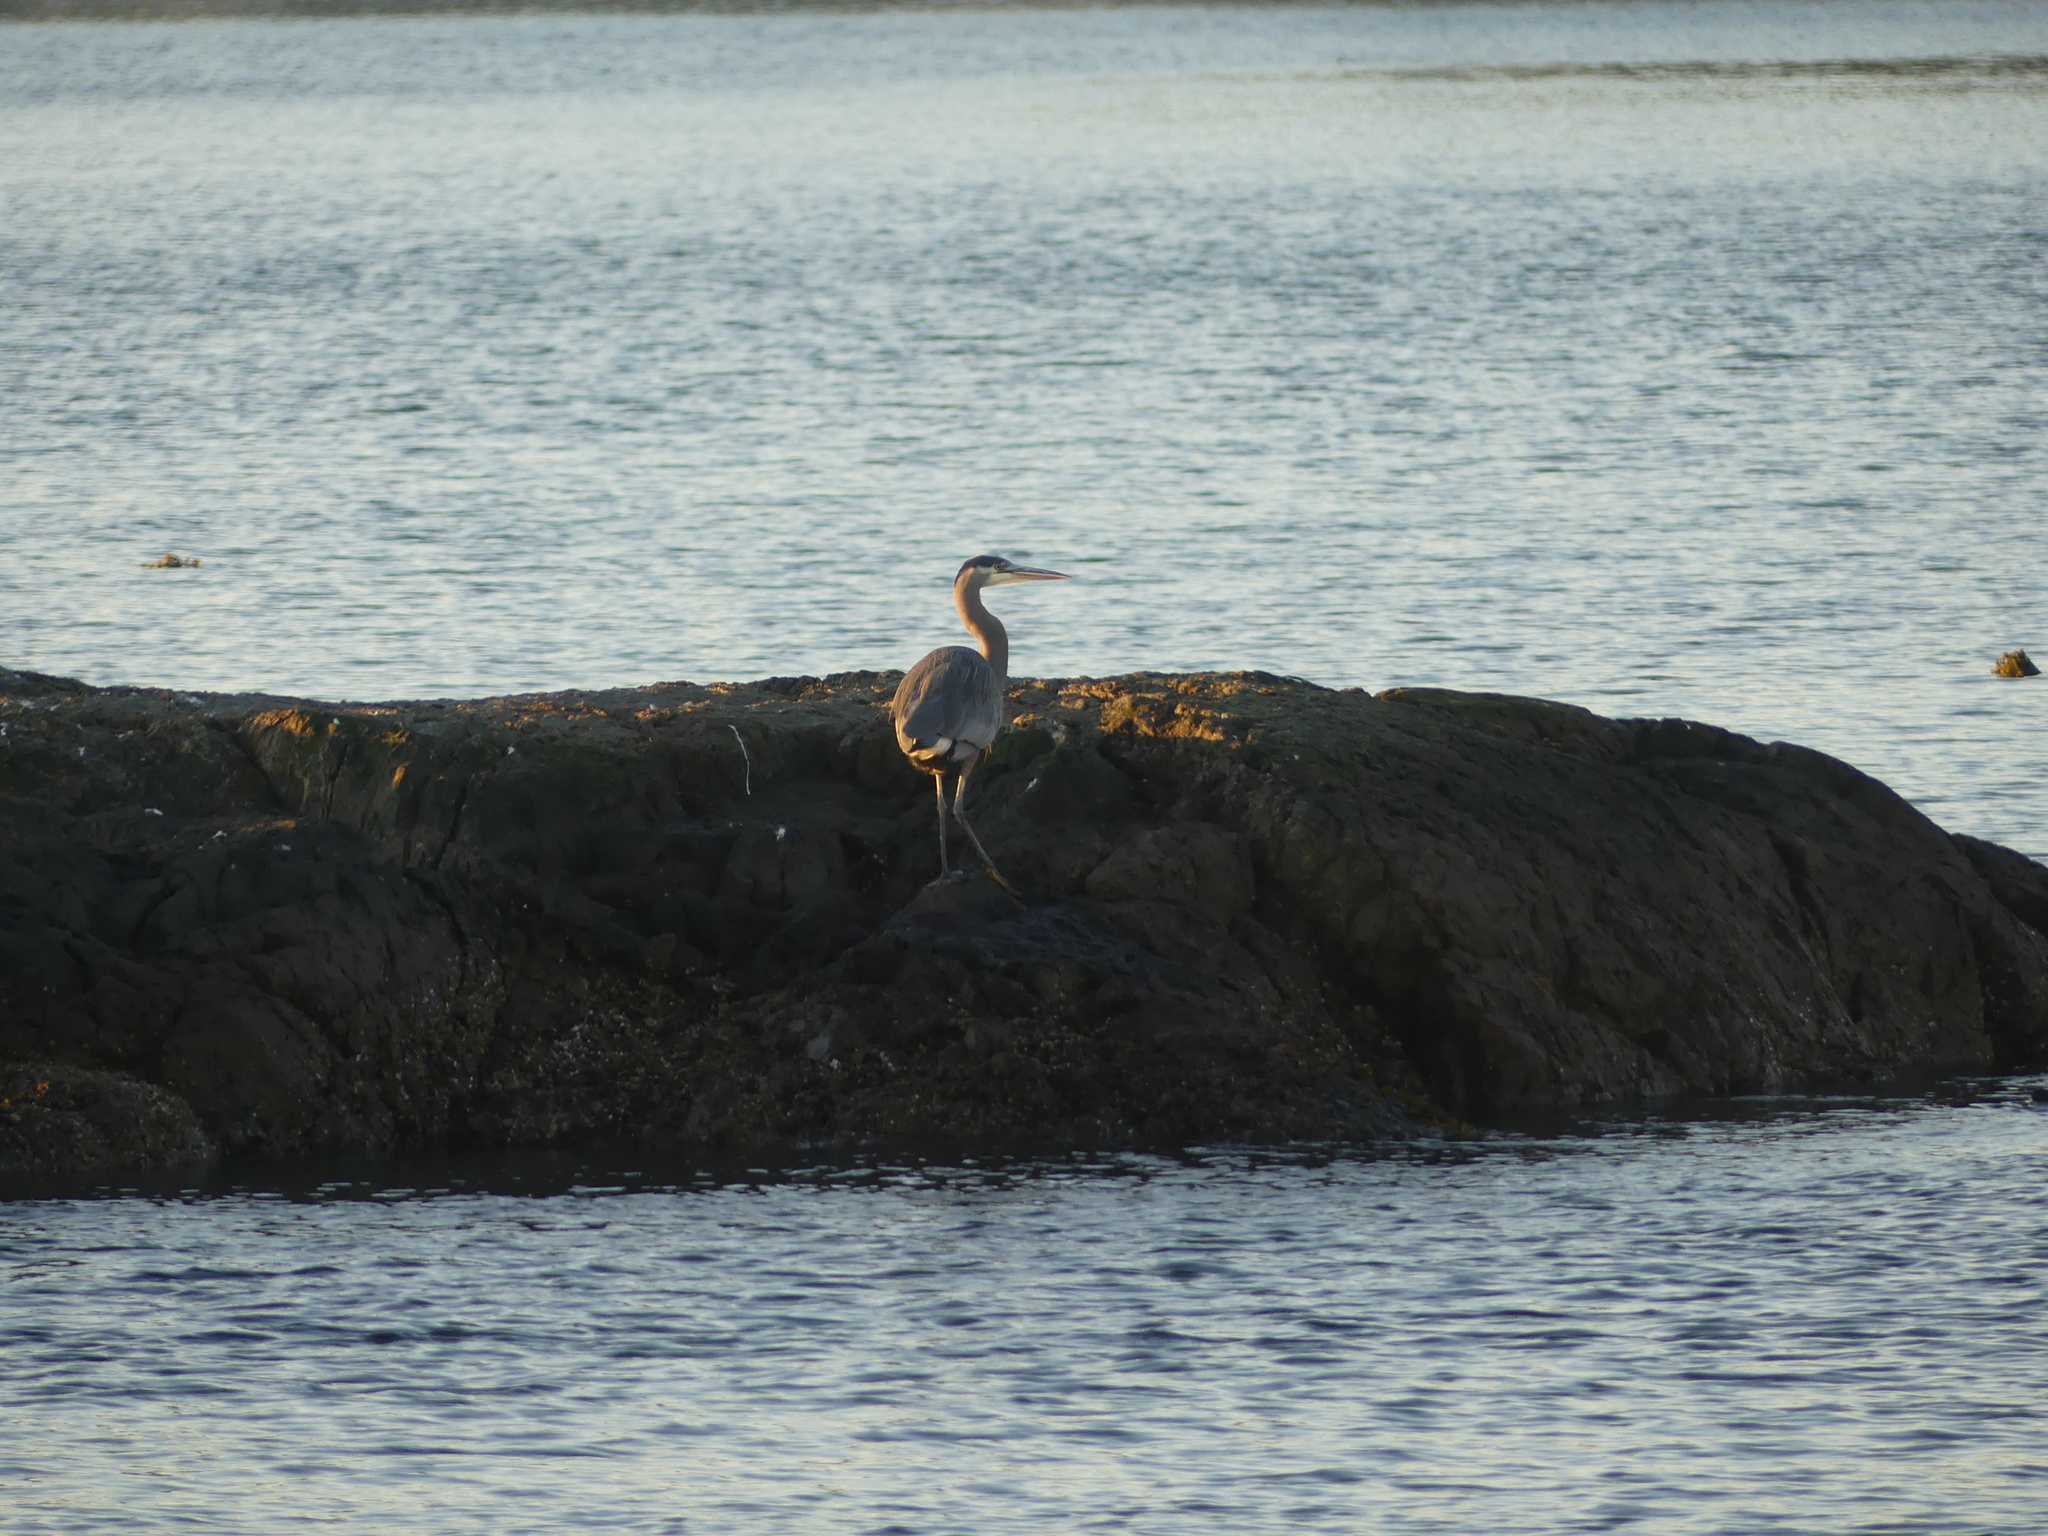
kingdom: Animalia
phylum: Chordata
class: Aves
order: Pelecaniformes
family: Ardeidae
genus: Ardea
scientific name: Ardea herodias
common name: Great blue heron
